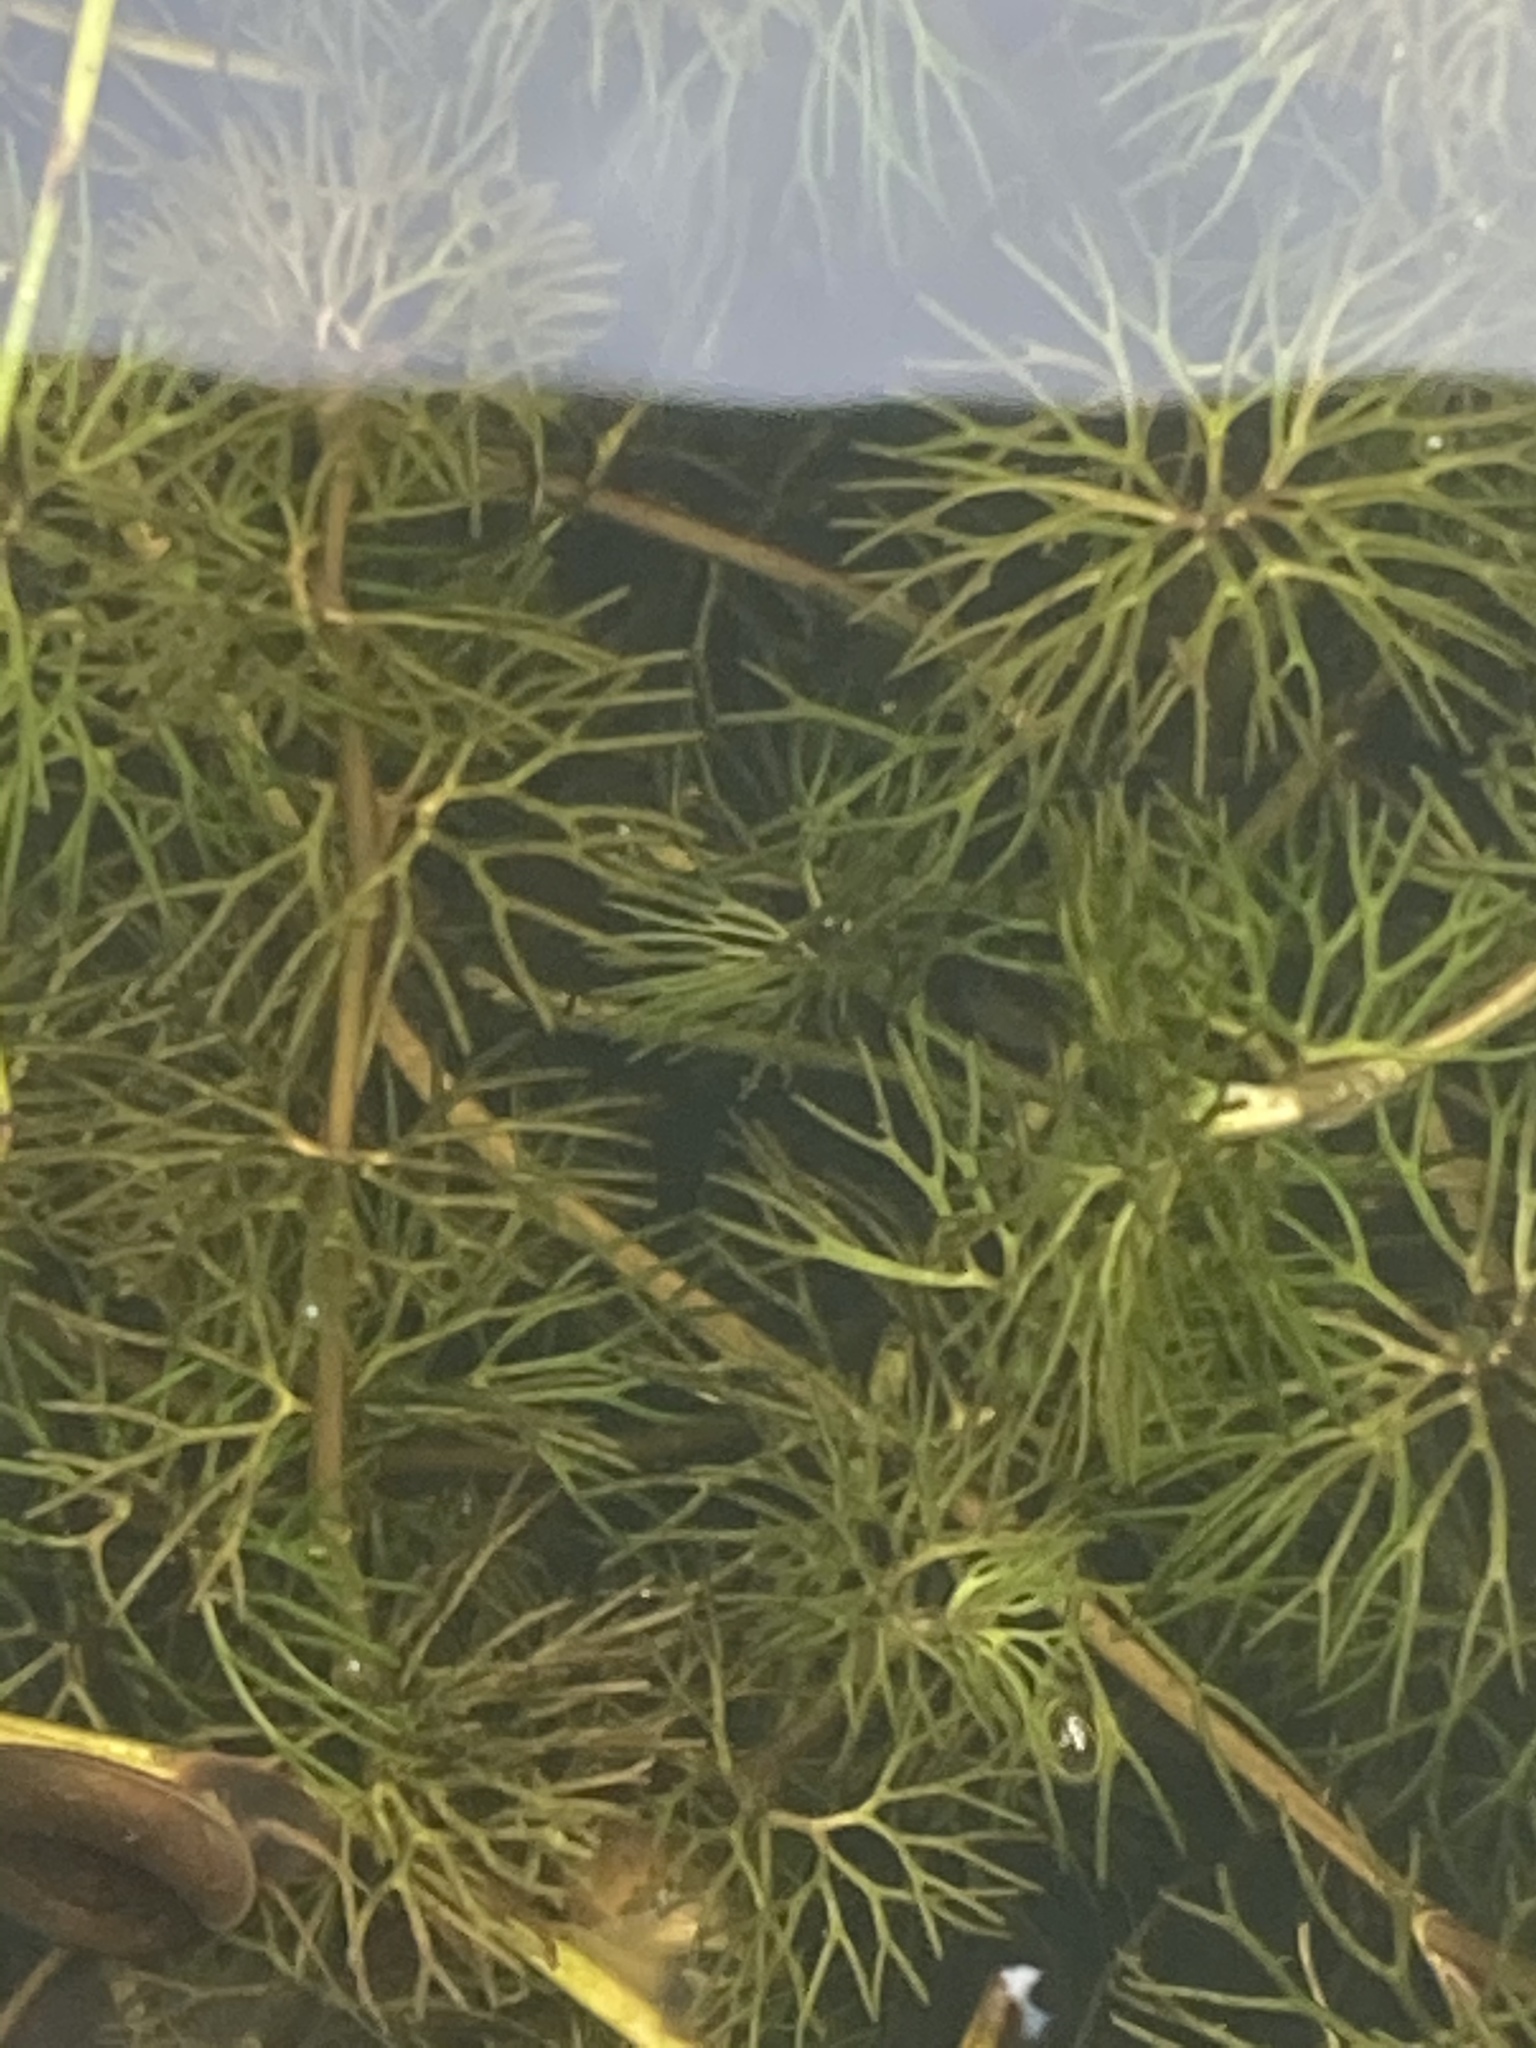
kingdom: Plantae
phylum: Tracheophyta
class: Magnoliopsida
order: Ranunculales
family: Ranunculaceae
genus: Ranunculus
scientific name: Ranunculus circinatus
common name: Fan-leaved water-crowfoot
